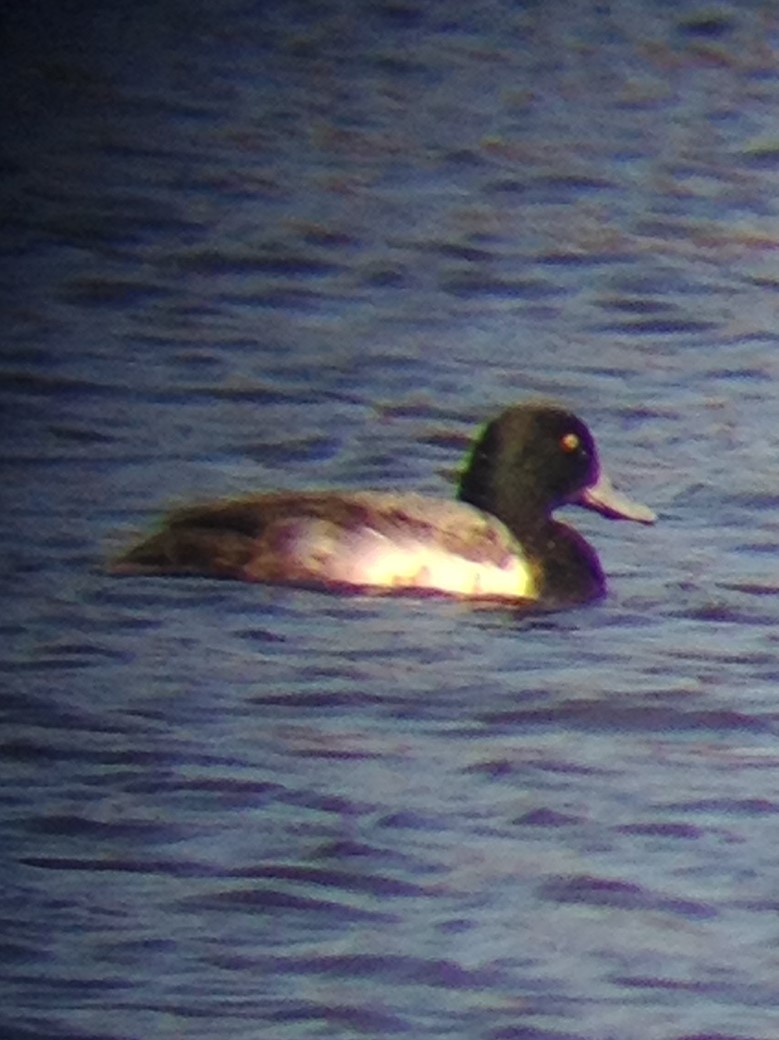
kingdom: Animalia
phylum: Chordata
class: Aves
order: Anseriformes
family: Anatidae
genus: Aythya
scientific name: Aythya marila
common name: Greater scaup
